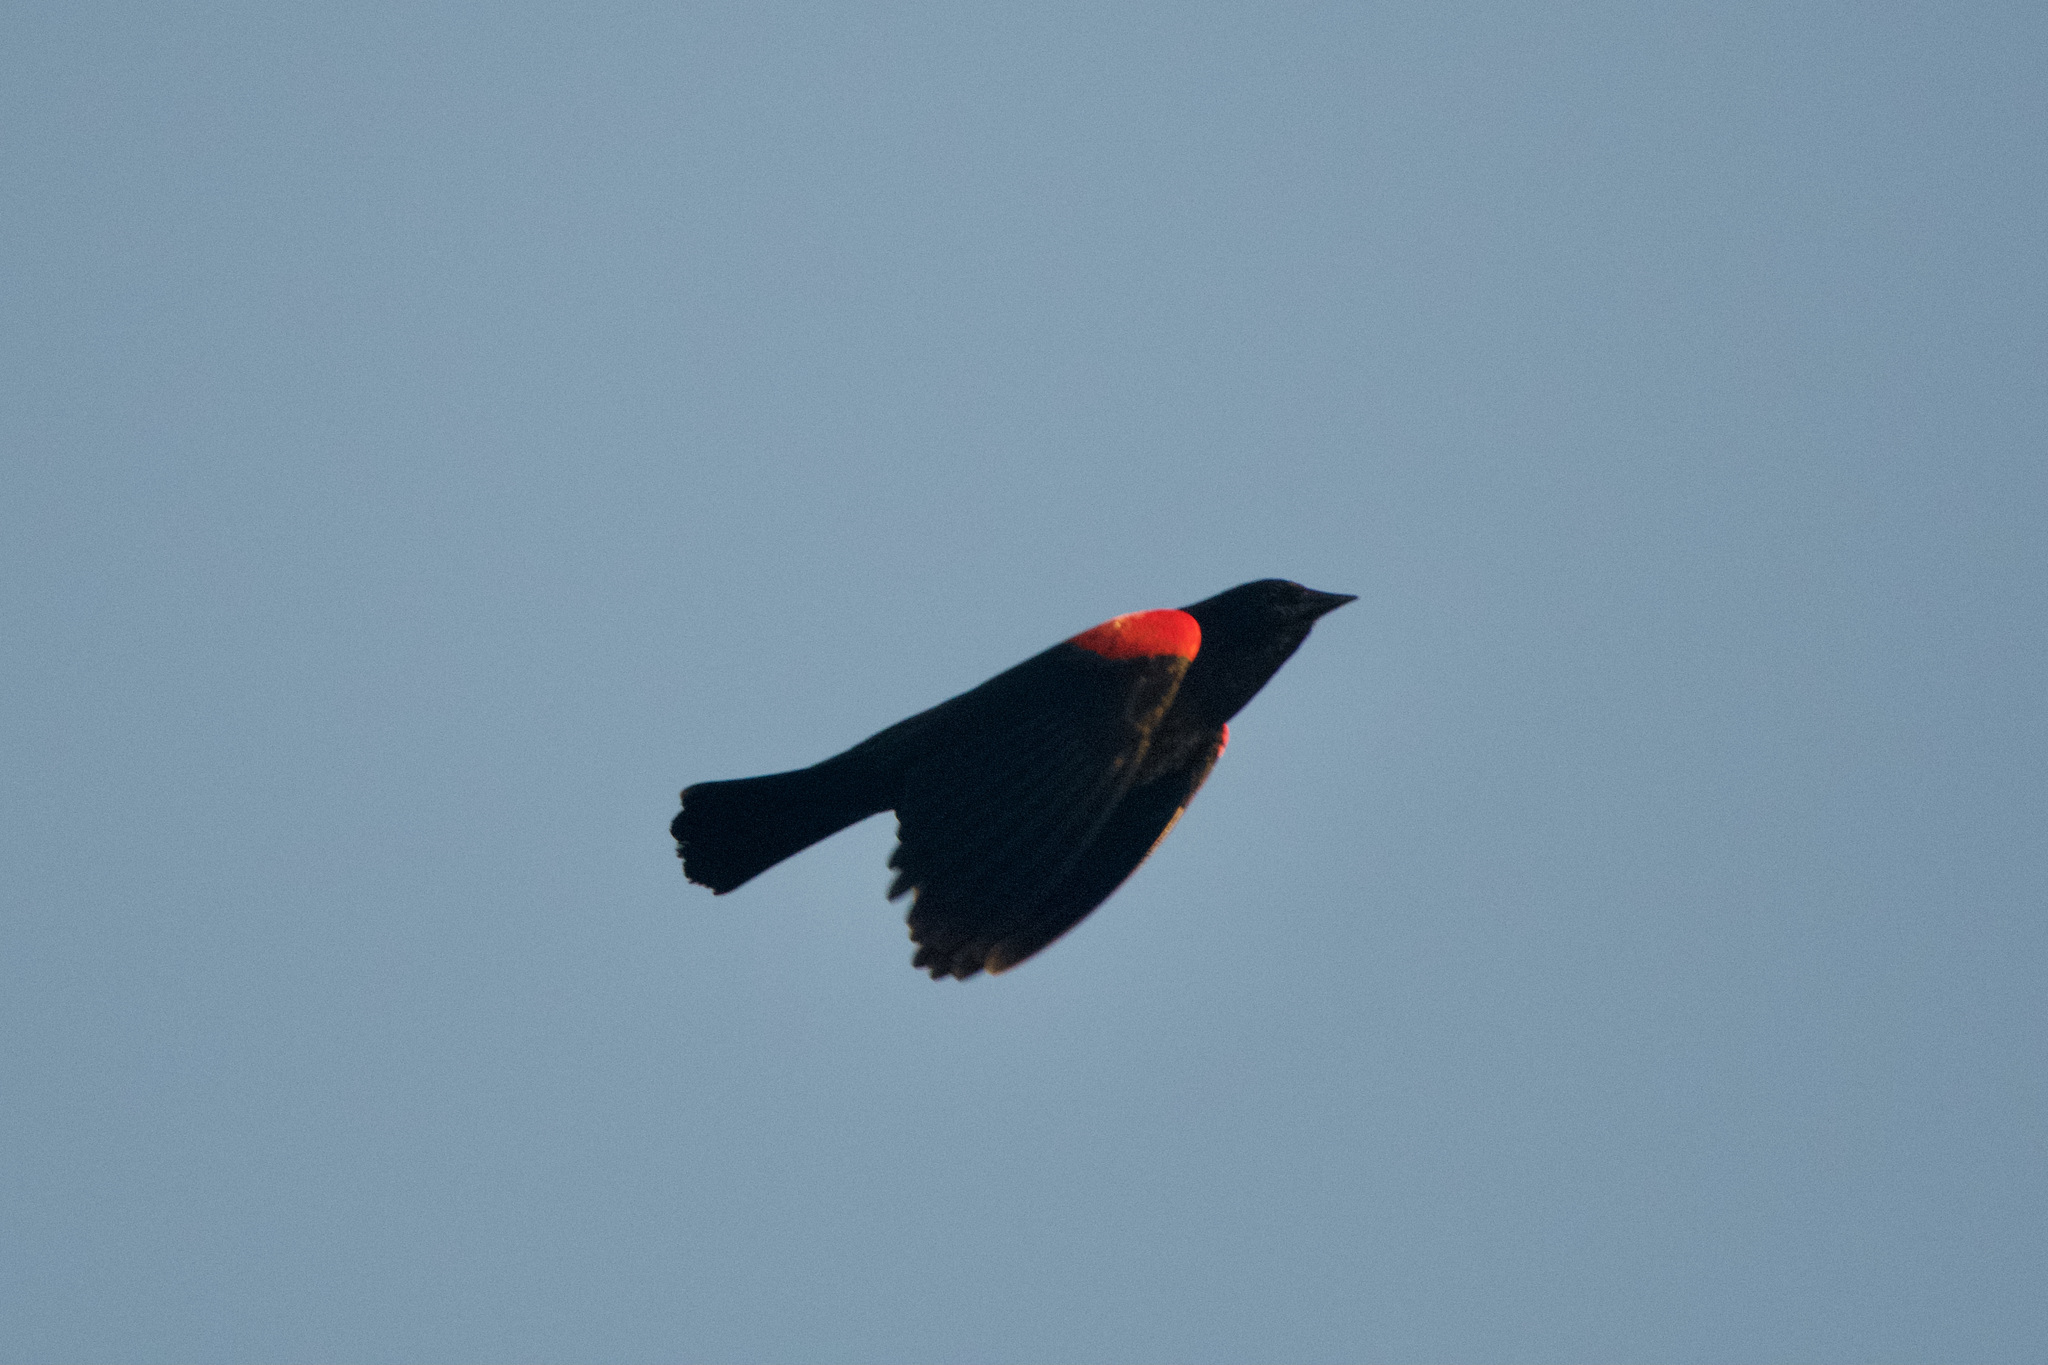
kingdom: Animalia
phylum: Chordata
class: Aves
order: Passeriformes
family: Icteridae
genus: Agelaius
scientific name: Agelaius phoeniceus
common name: Red-winged blackbird
